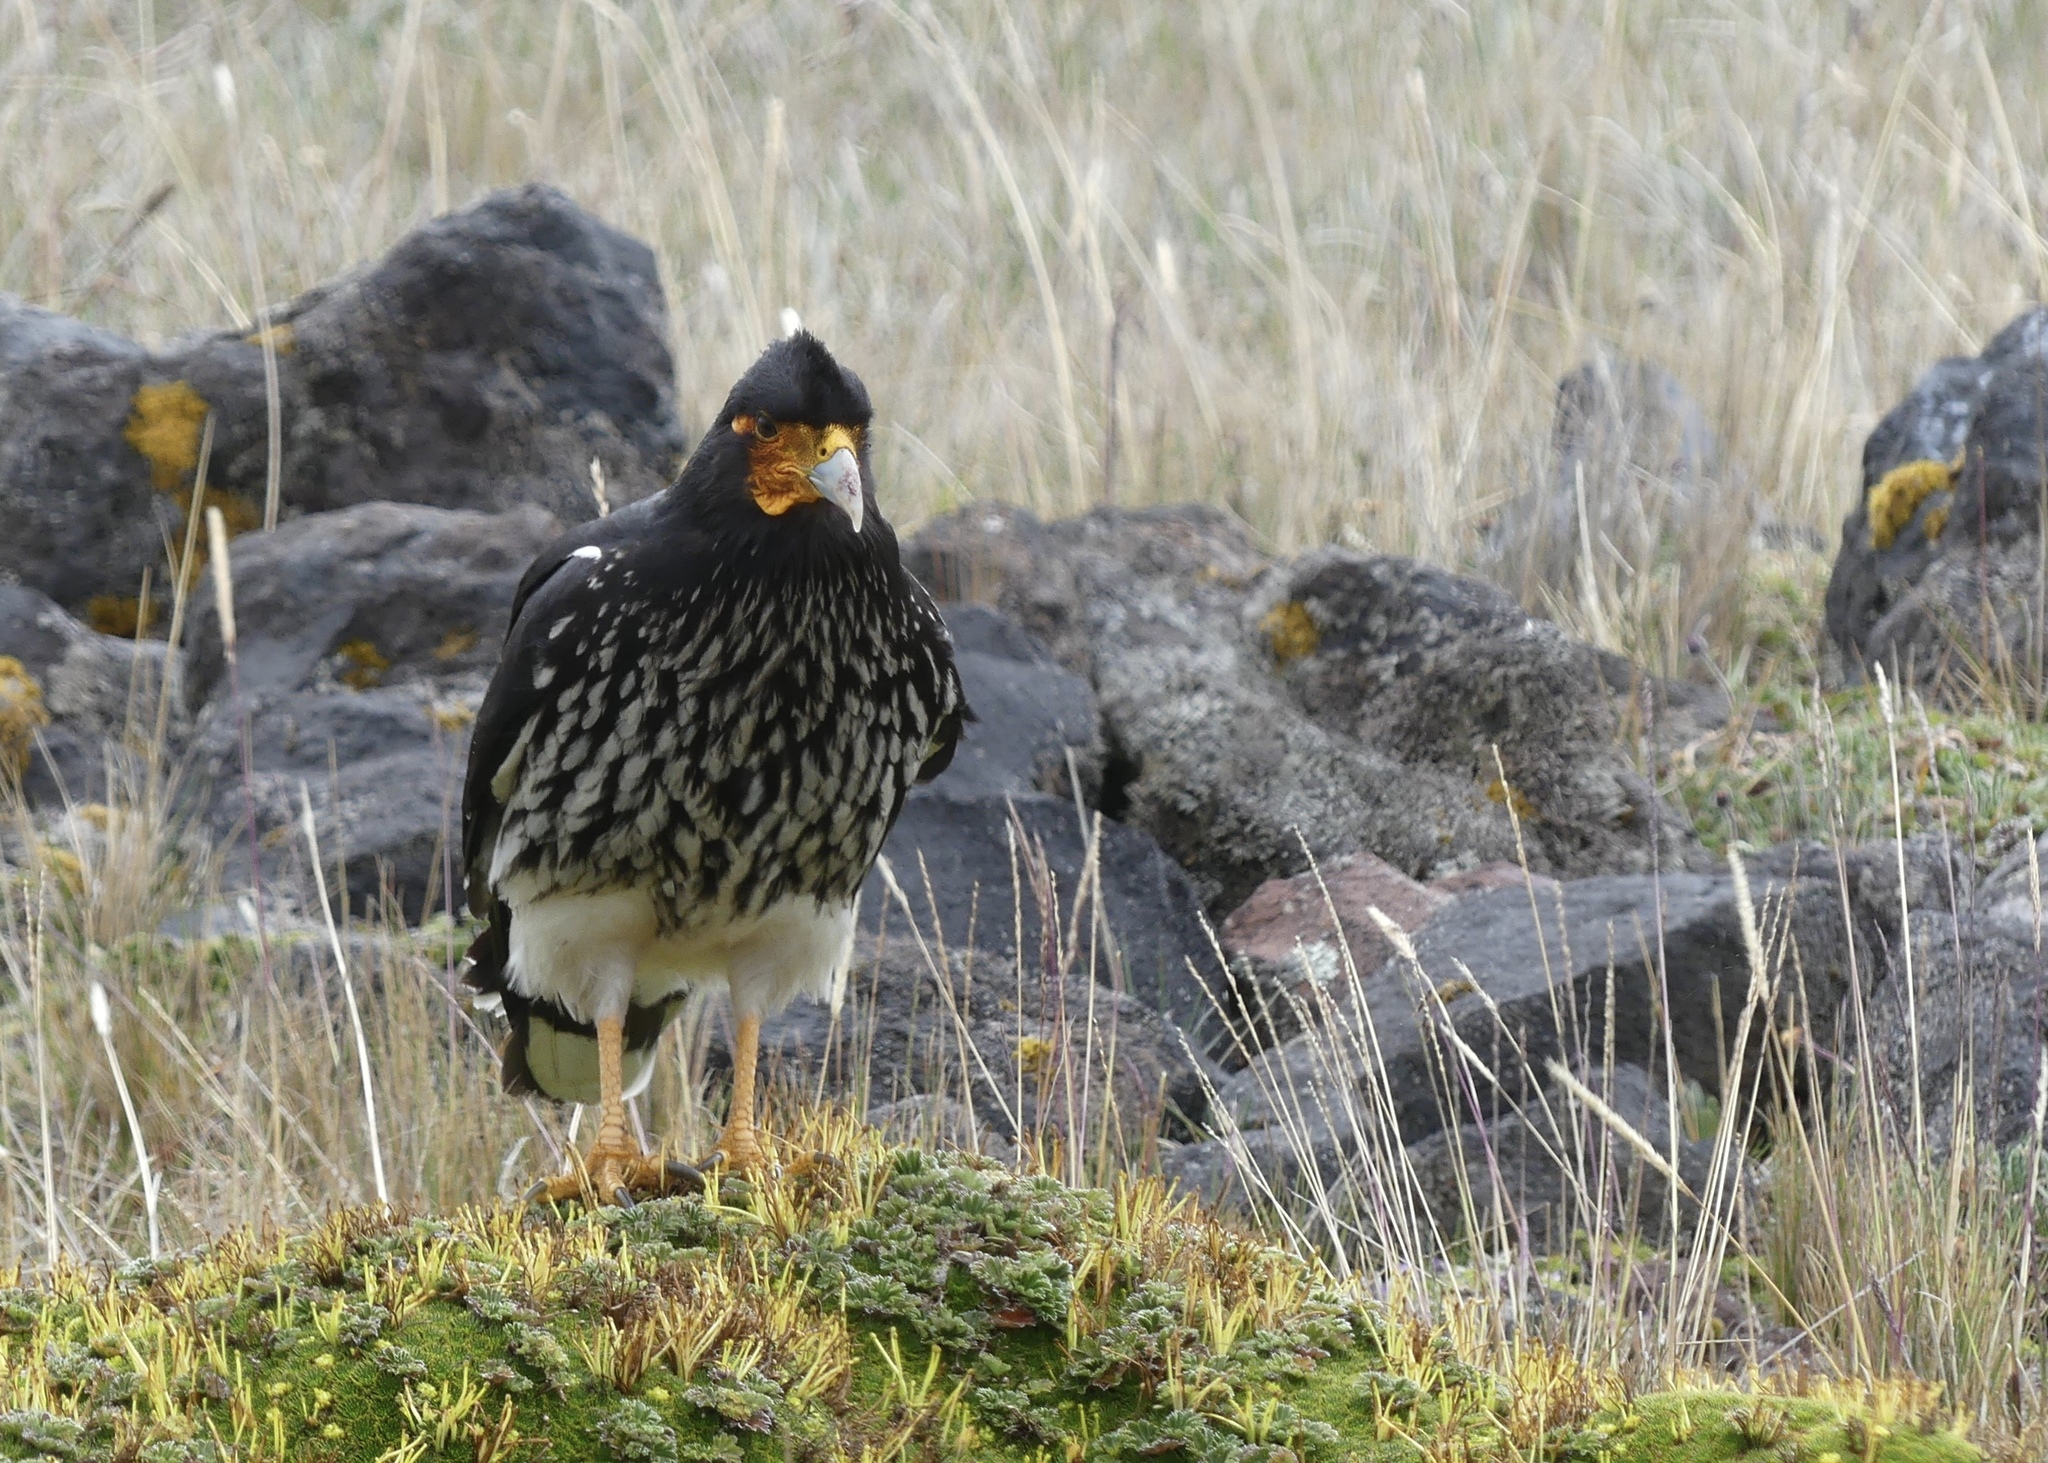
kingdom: Animalia
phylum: Chordata
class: Aves
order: Falconiformes
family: Falconidae
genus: Daptrius
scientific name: Daptrius
